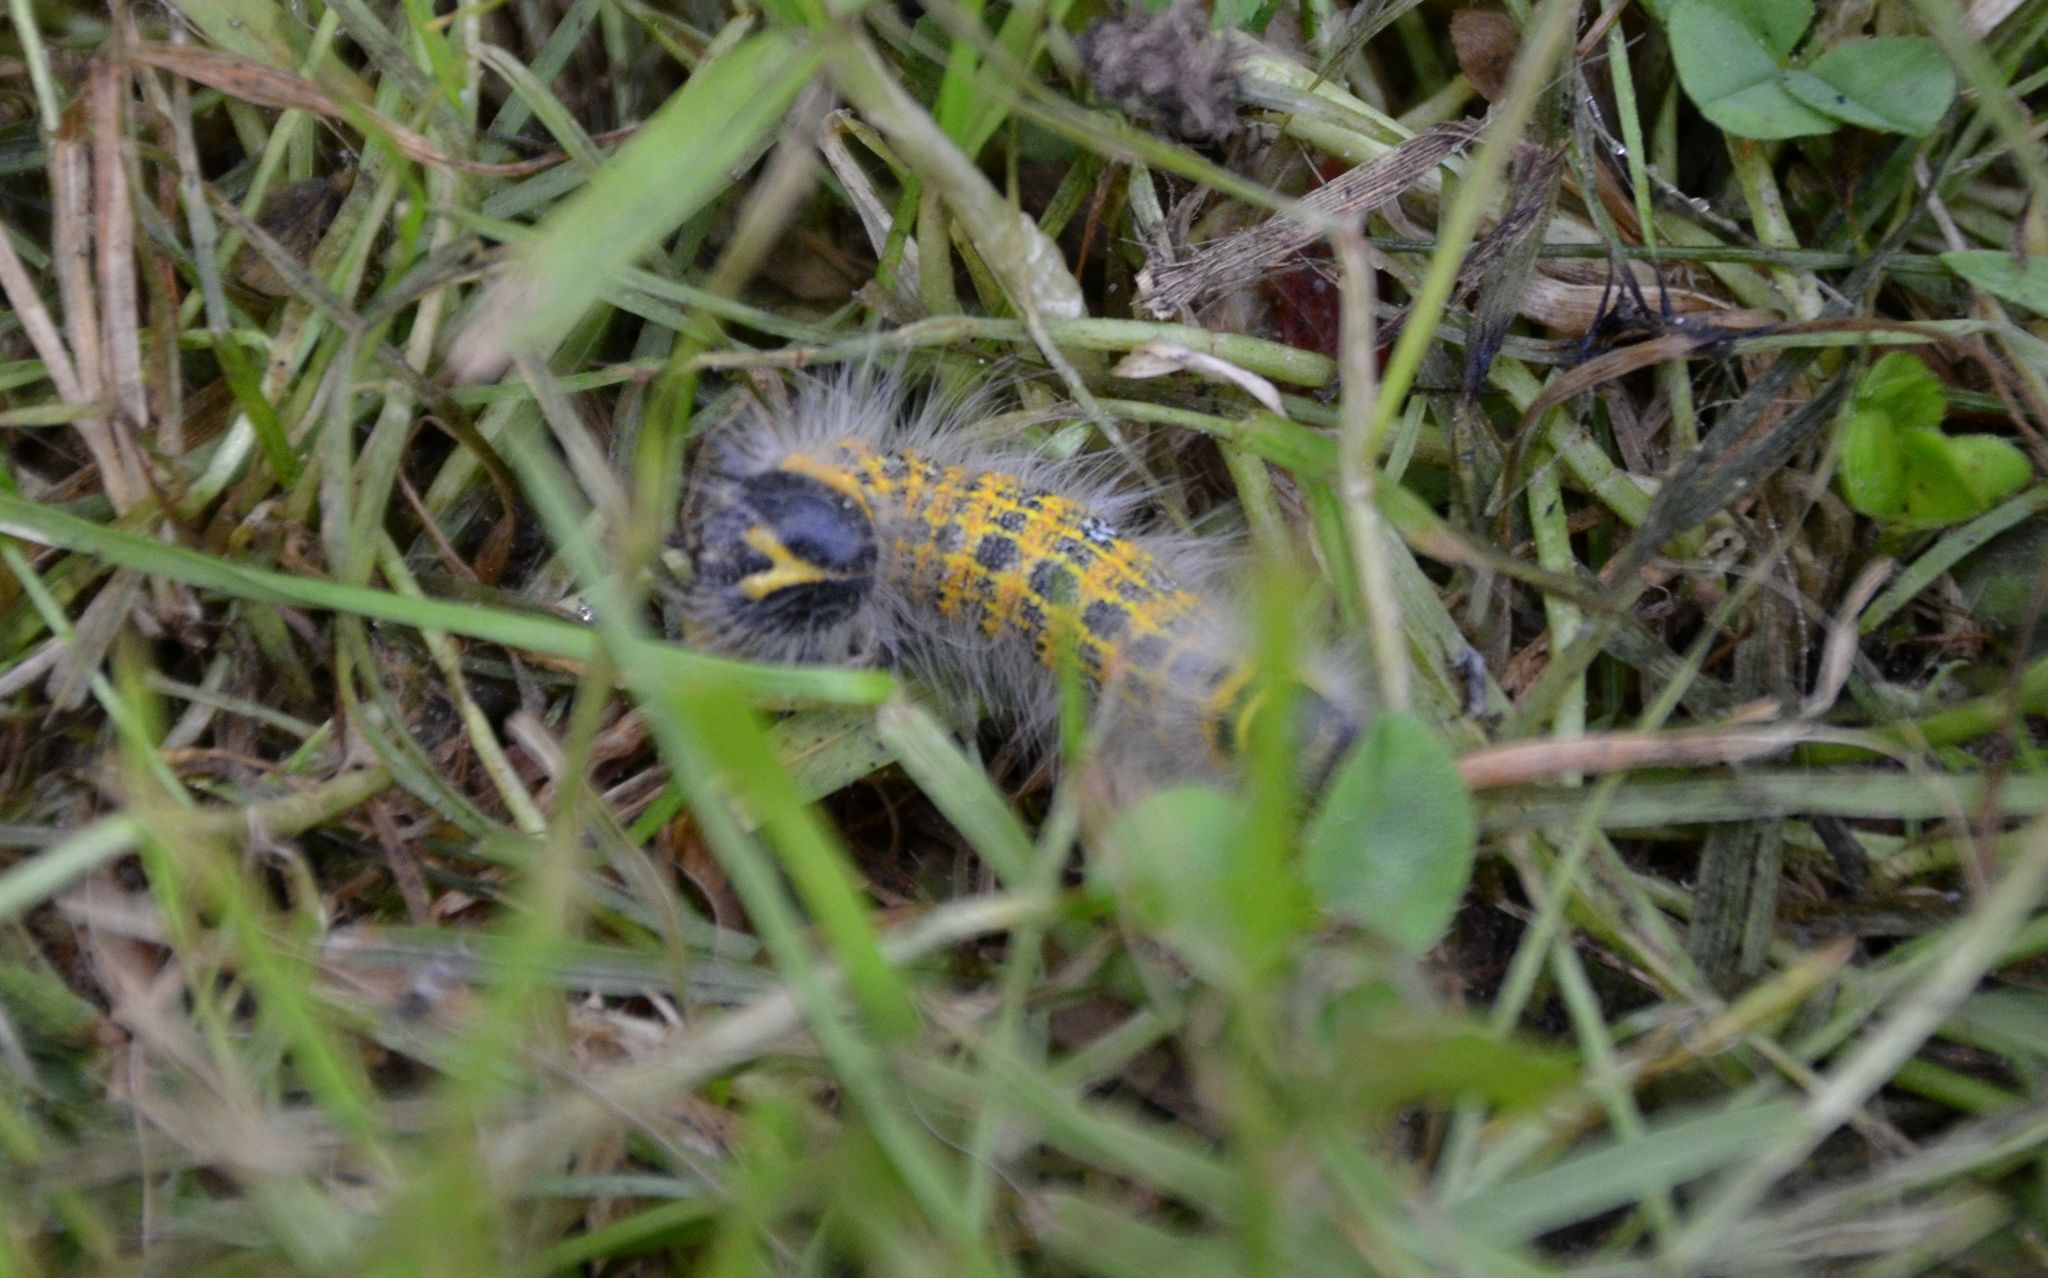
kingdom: Animalia
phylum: Arthropoda
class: Insecta
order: Lepidoptera
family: Notodontidae
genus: Phalera
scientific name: Phalera bucephala
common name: Buff-tip
